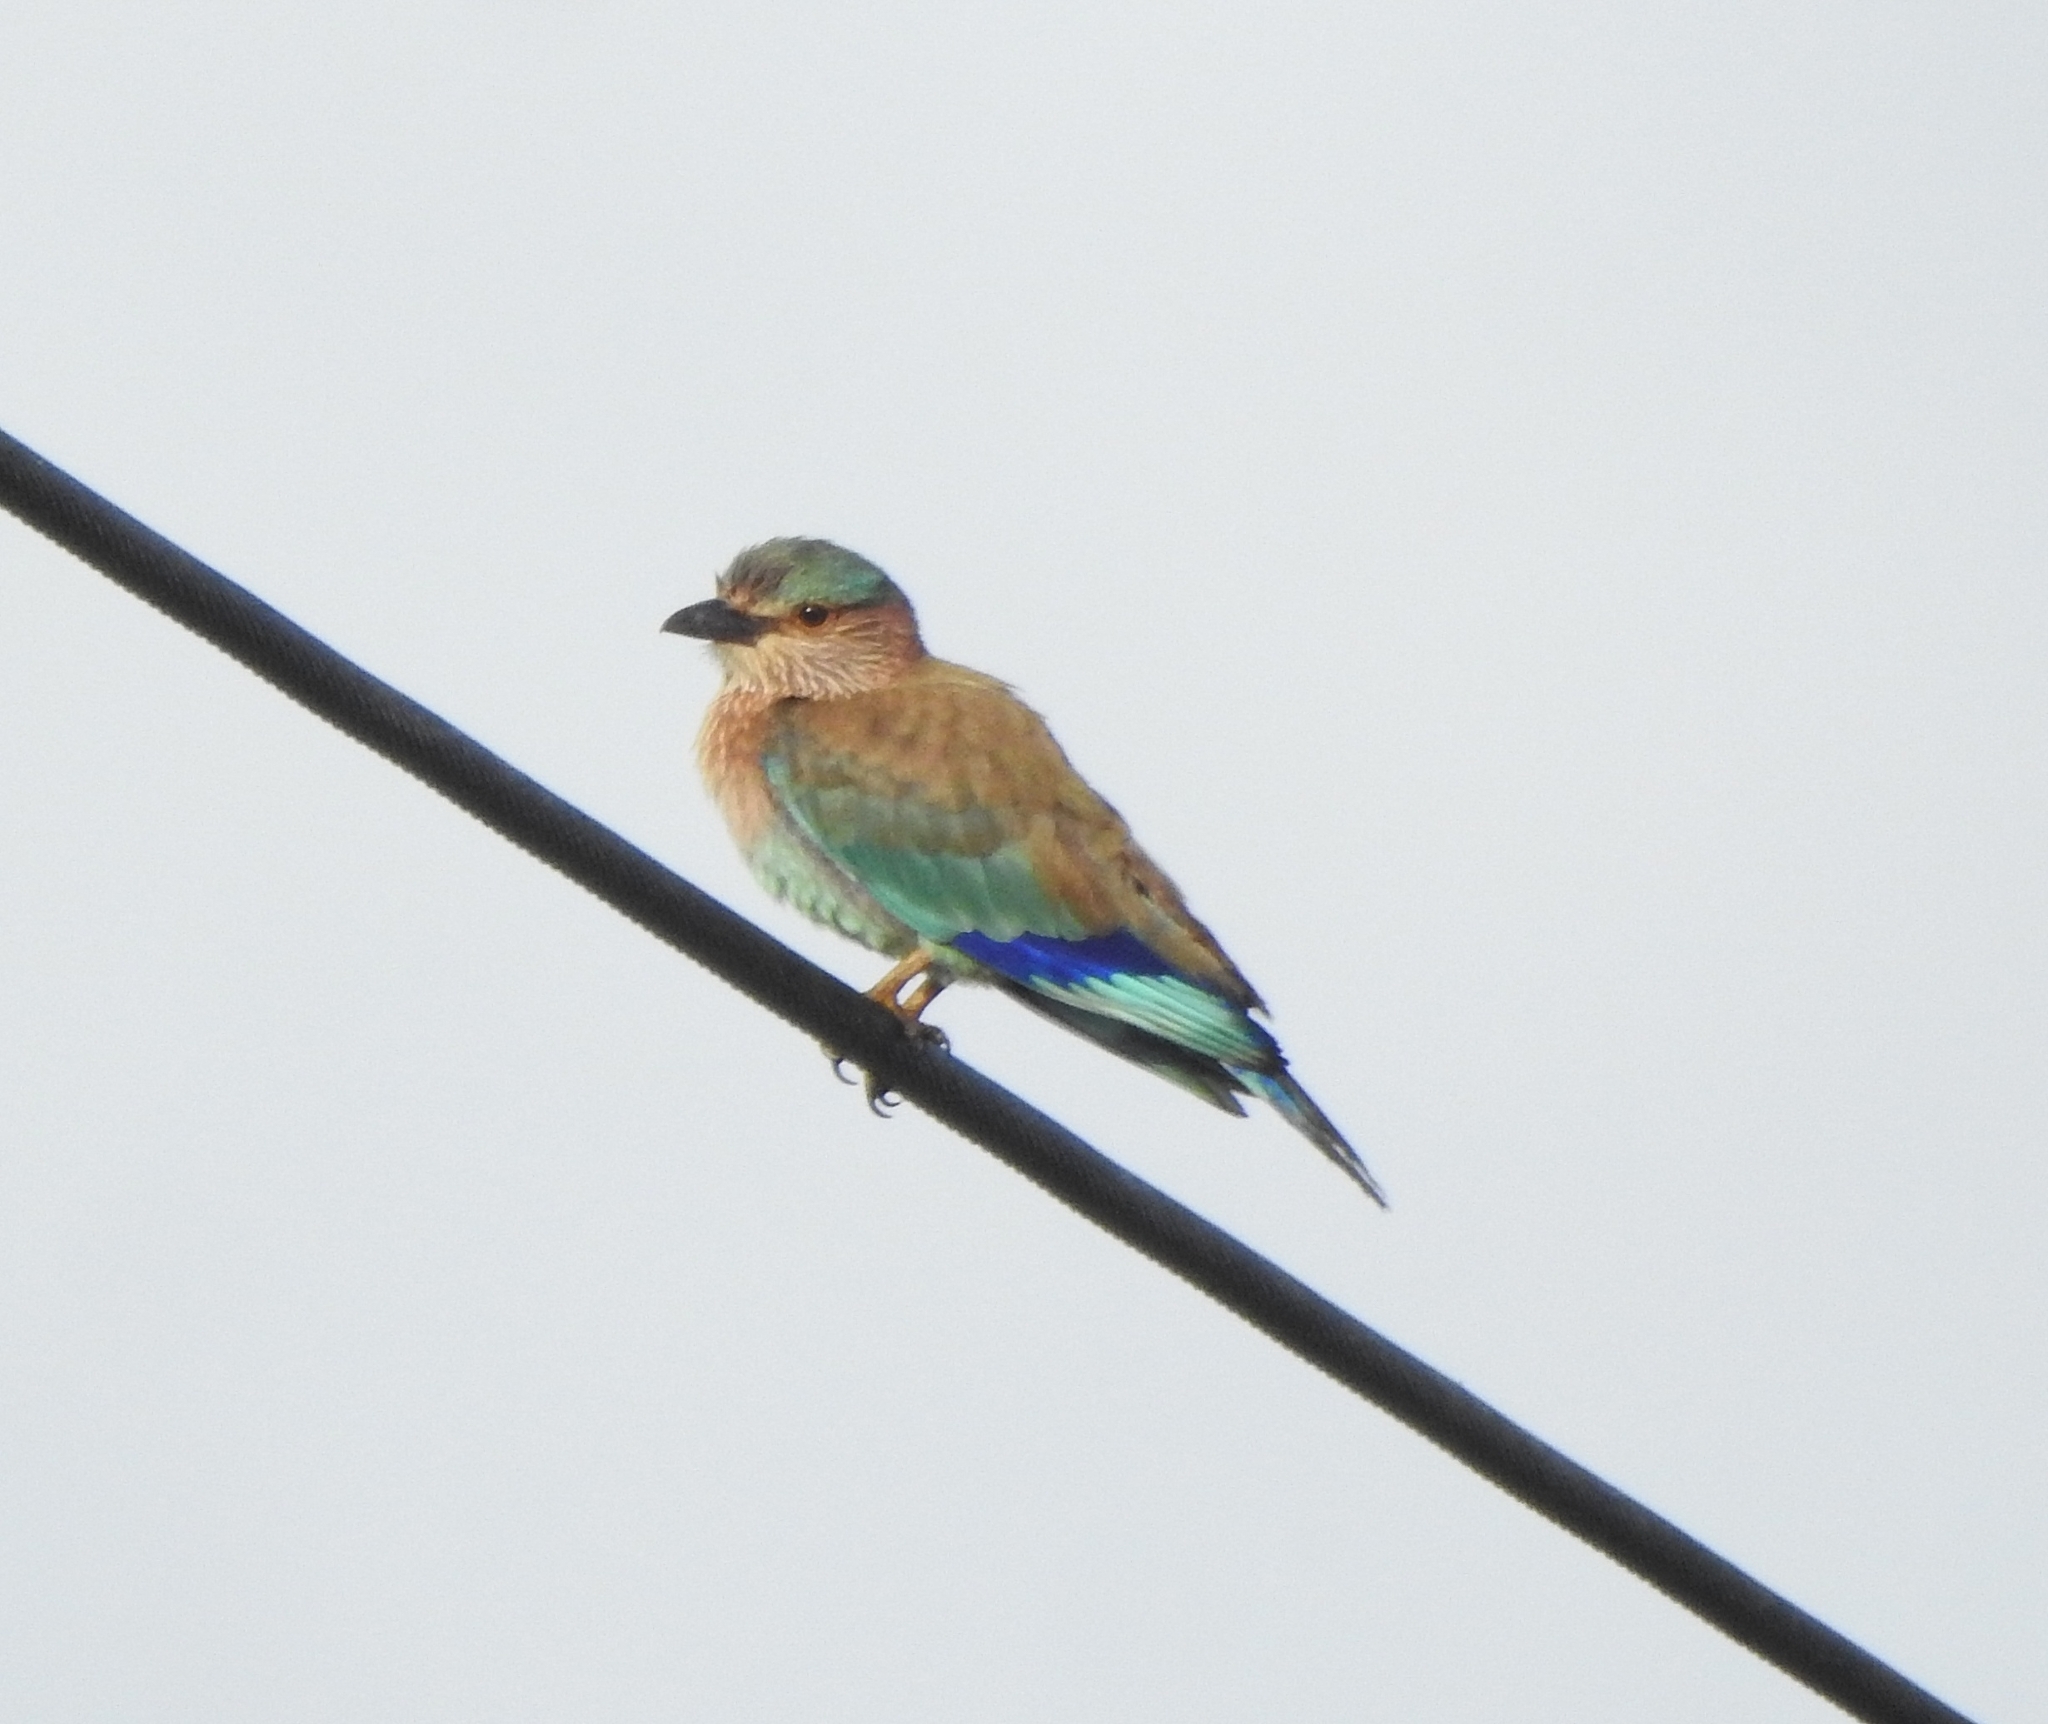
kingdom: Animalia
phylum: Chordata
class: Aves
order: Coraciiformes
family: Coraciidae
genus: Coracias
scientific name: Coracias benghalensis
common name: Indian roller
